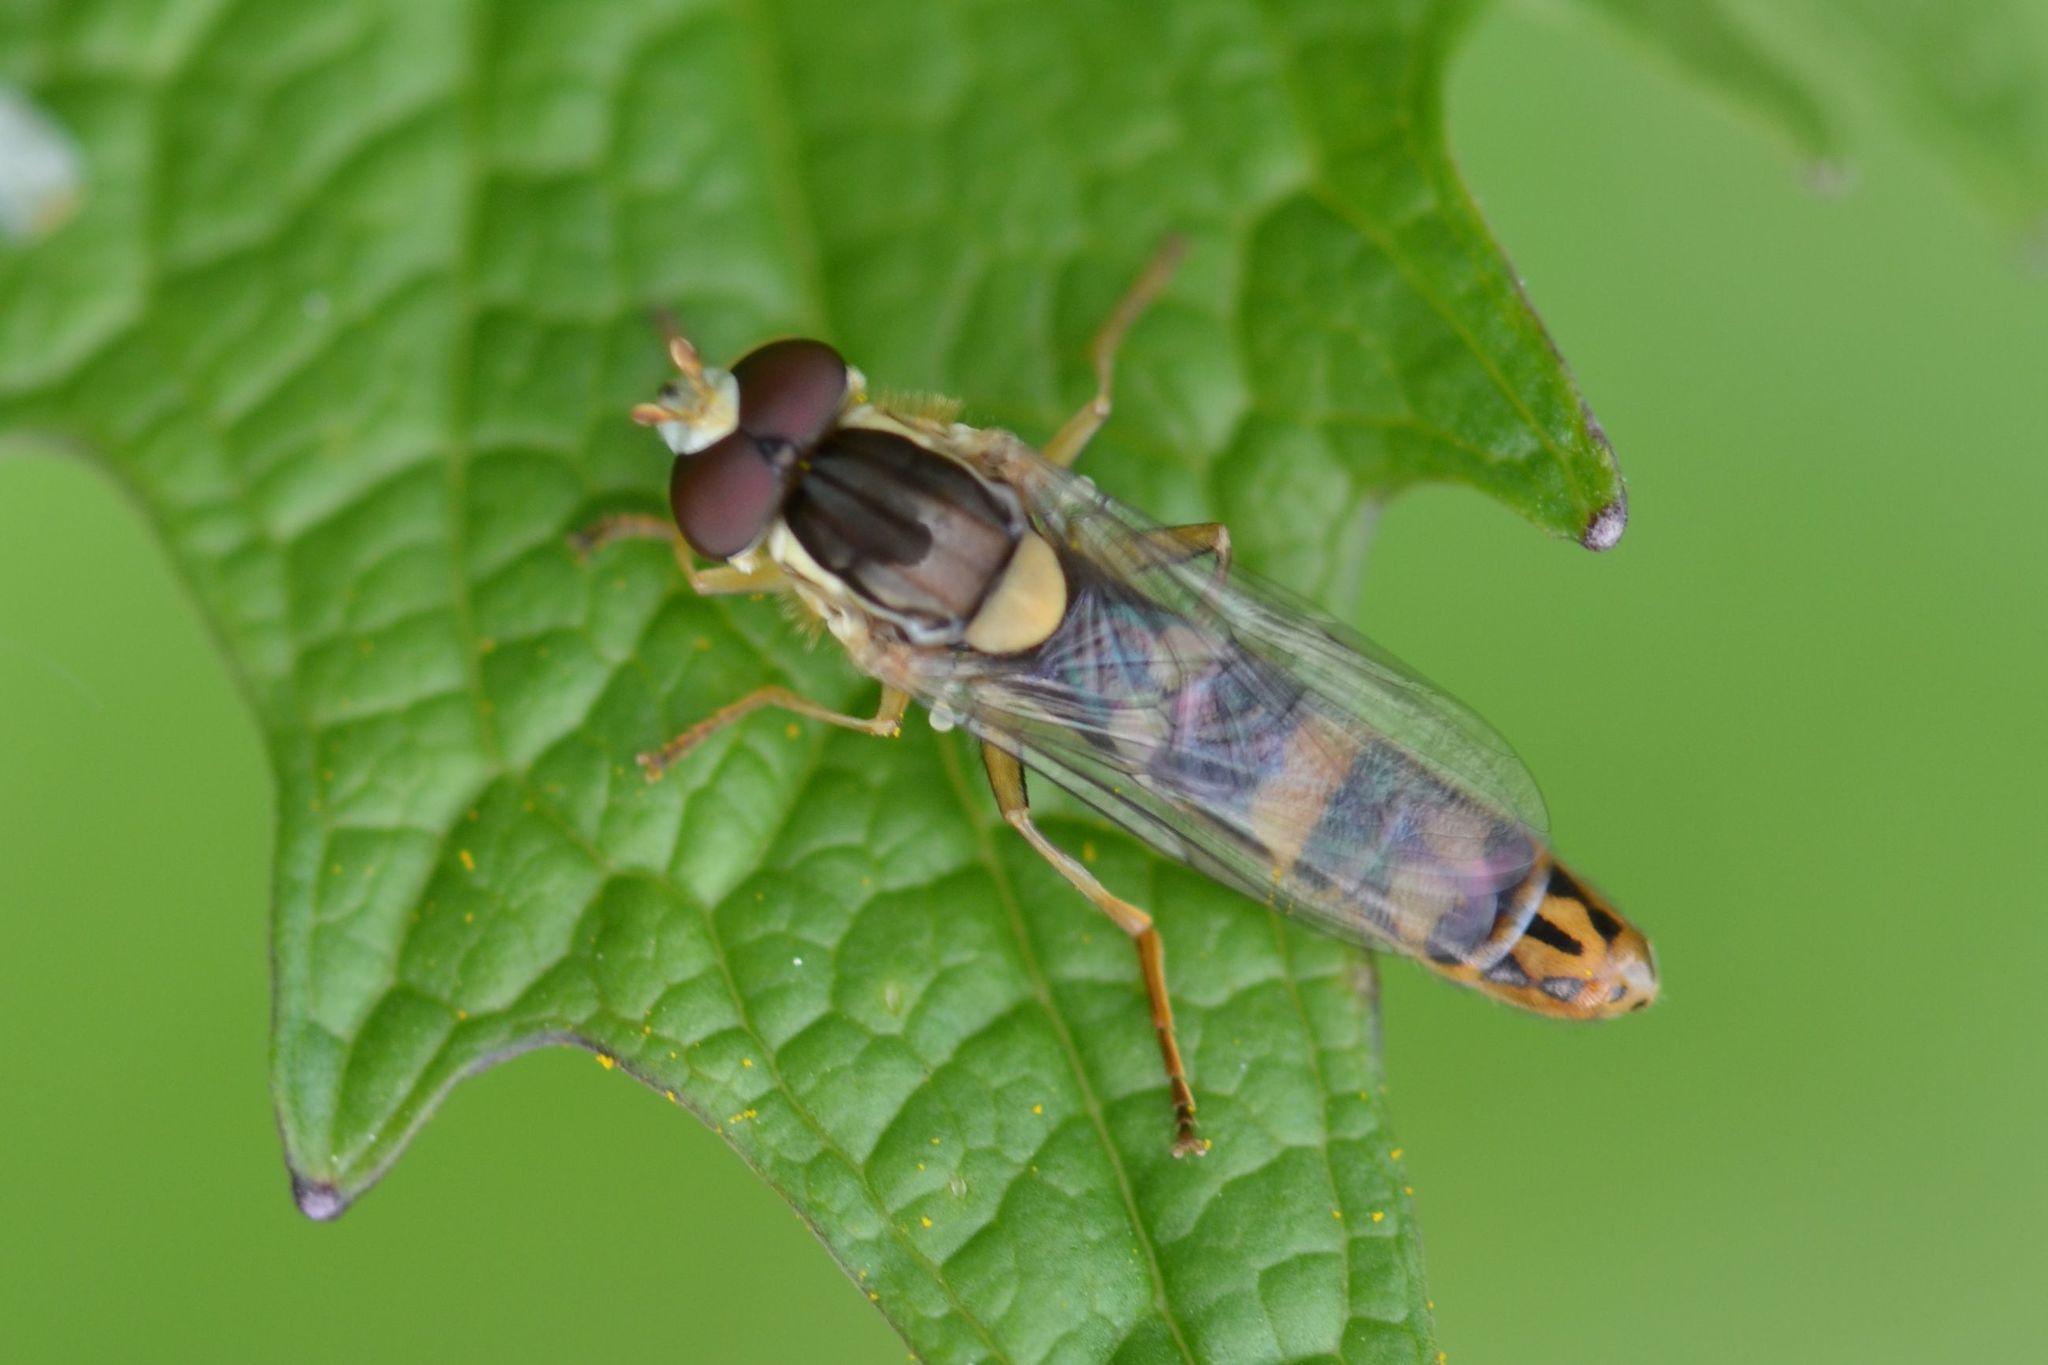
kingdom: Animalia
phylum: Arthropoda
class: Insecta
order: Diptera
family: Syrphidae
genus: Sphaerophoria
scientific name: Sphaerophoria scripta
